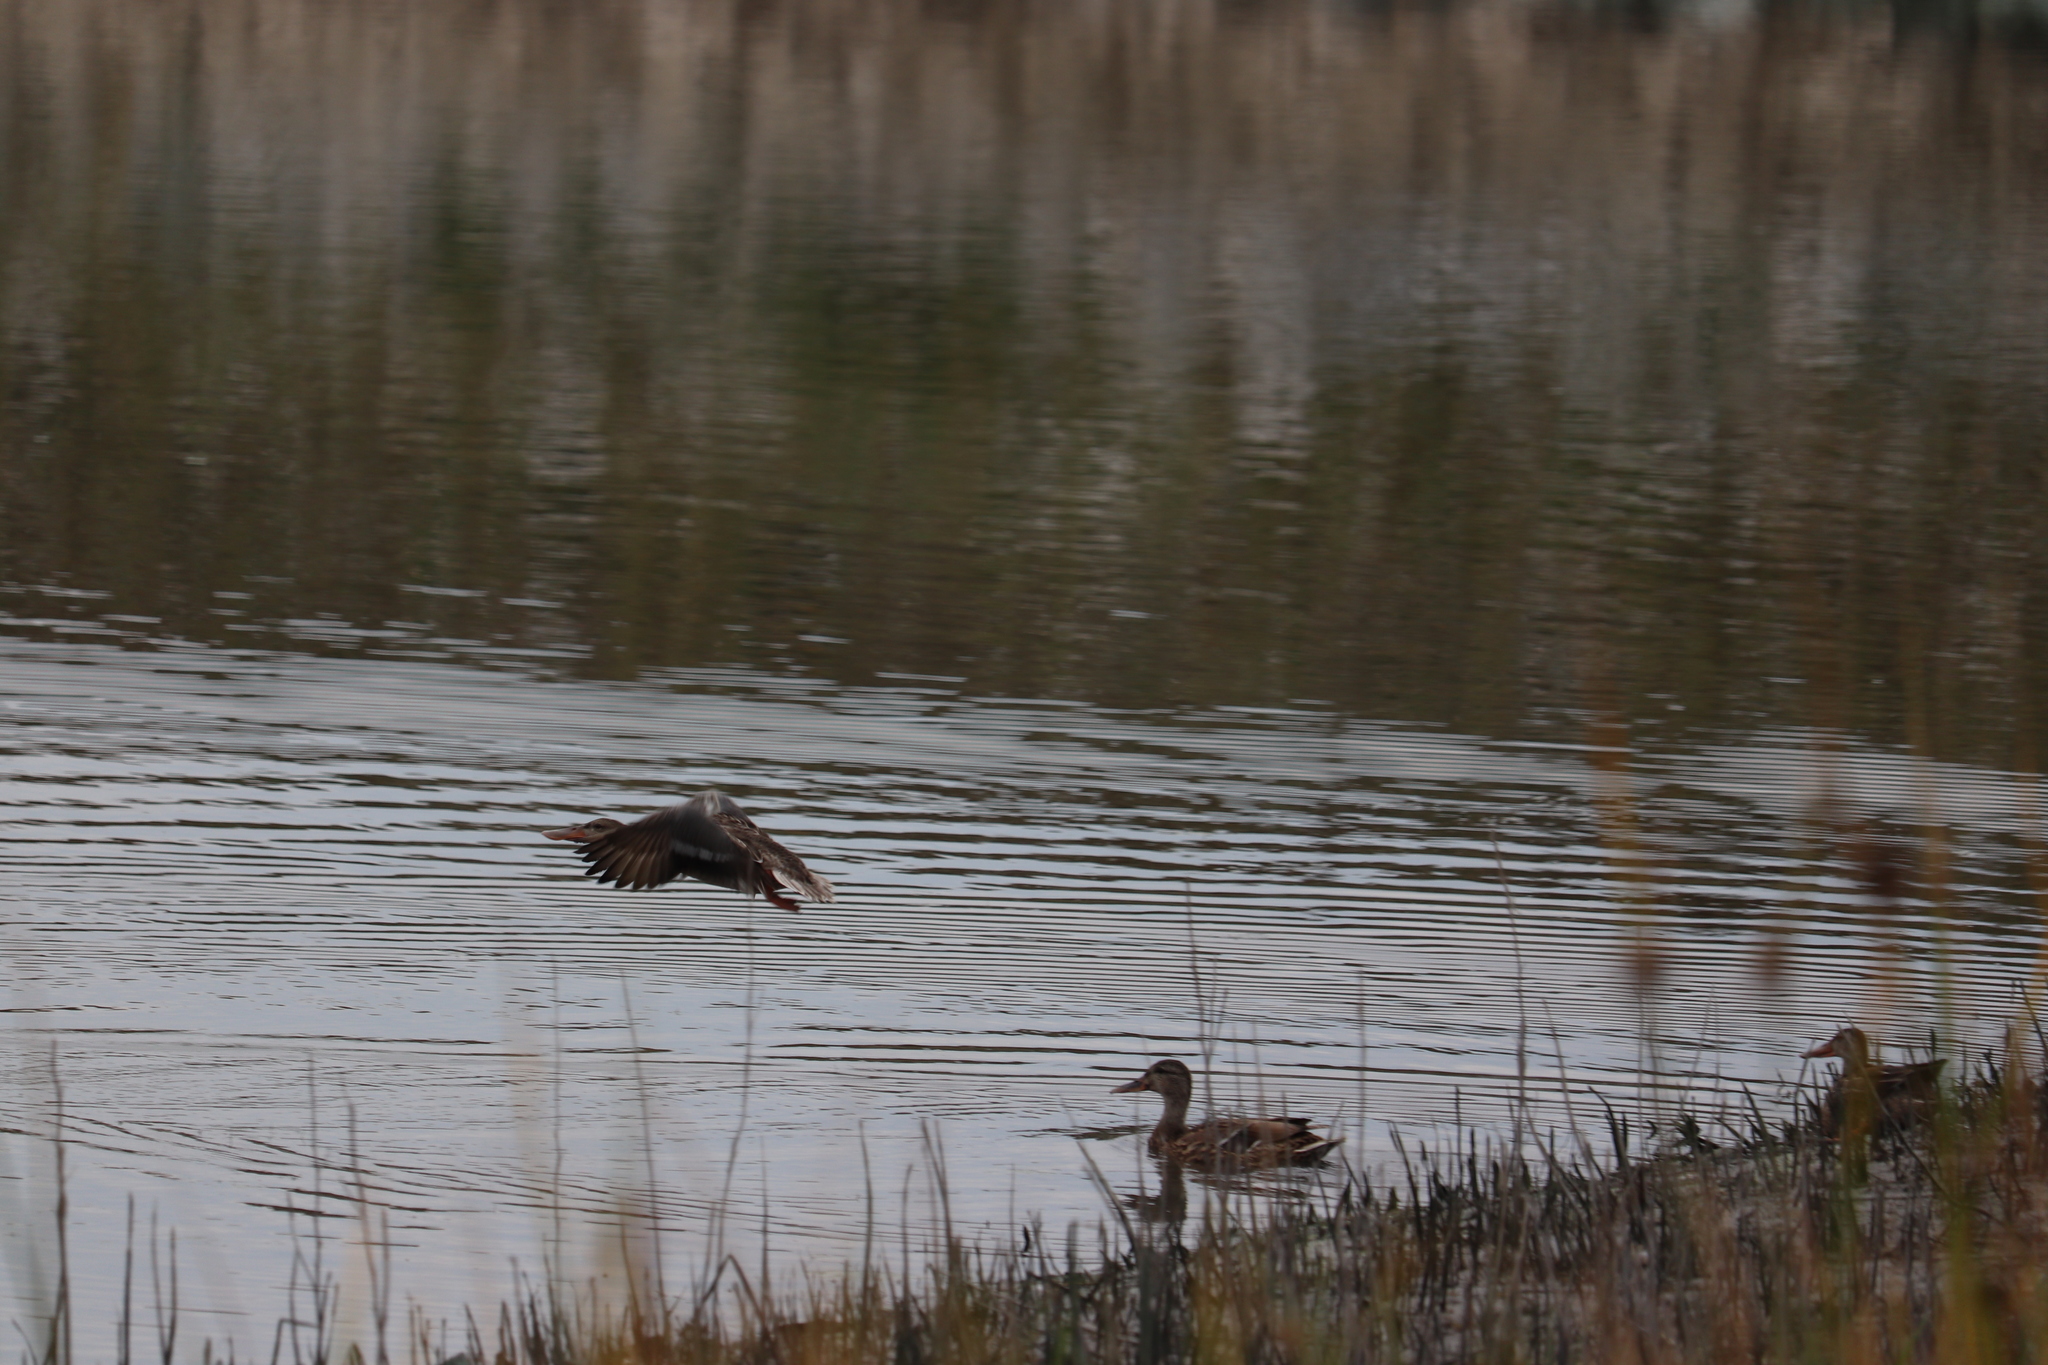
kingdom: Animalia
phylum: Chordata
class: Aves
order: Anseriformes
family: Anatidae
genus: Spatula
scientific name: Spatula clypeata
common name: Northern shoveler
